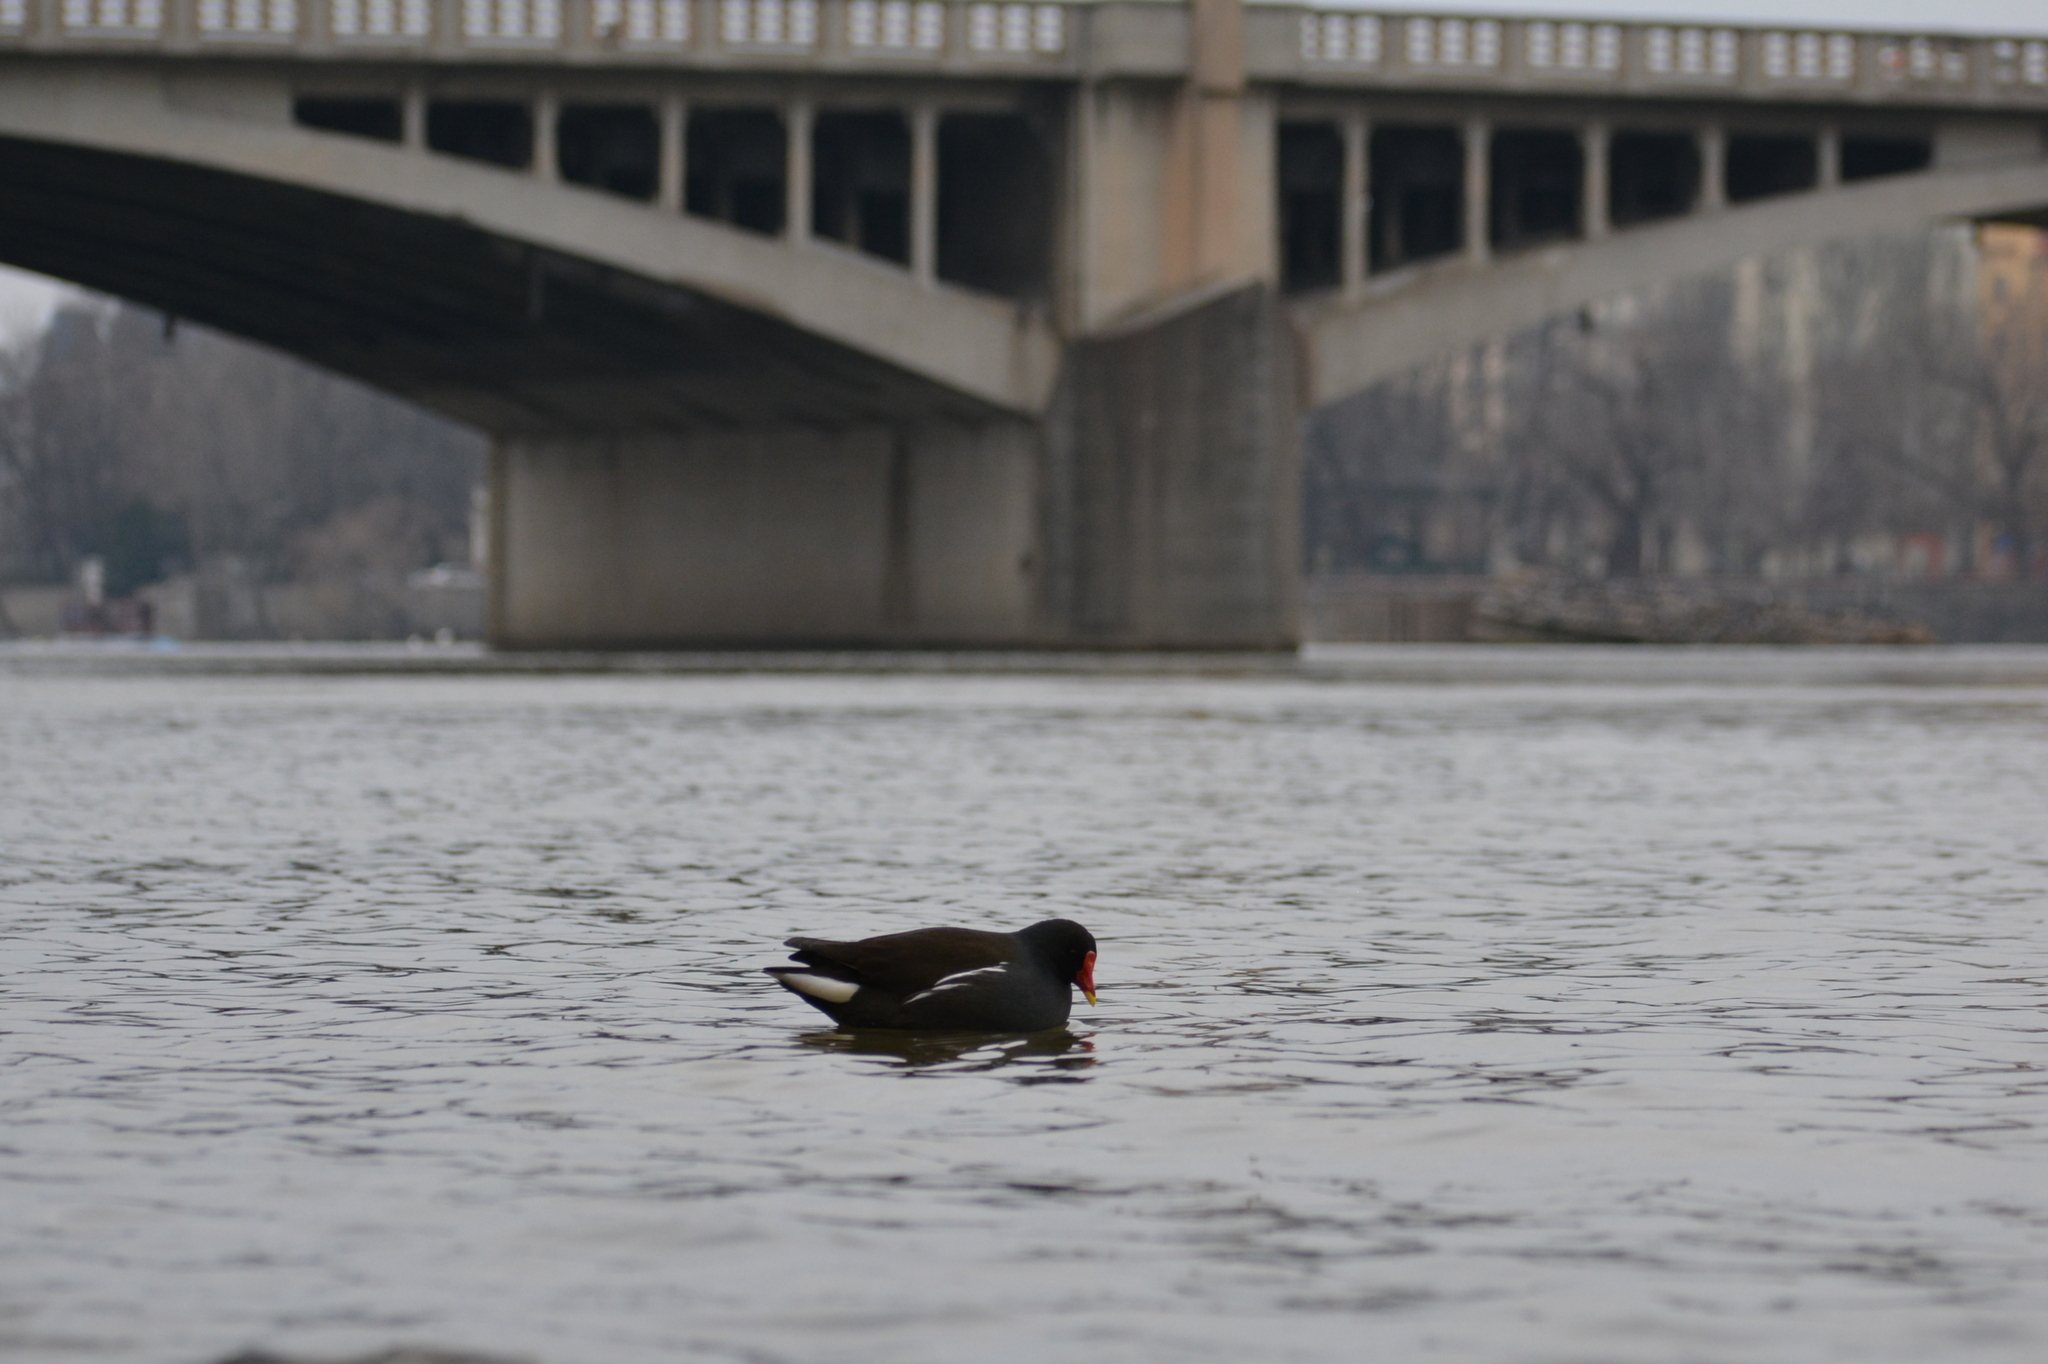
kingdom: Animalia
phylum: Chordata
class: Aves
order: Gruiformes
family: Rallidae
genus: Gallinula
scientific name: Gallinula chloropus
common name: Common moorhen
